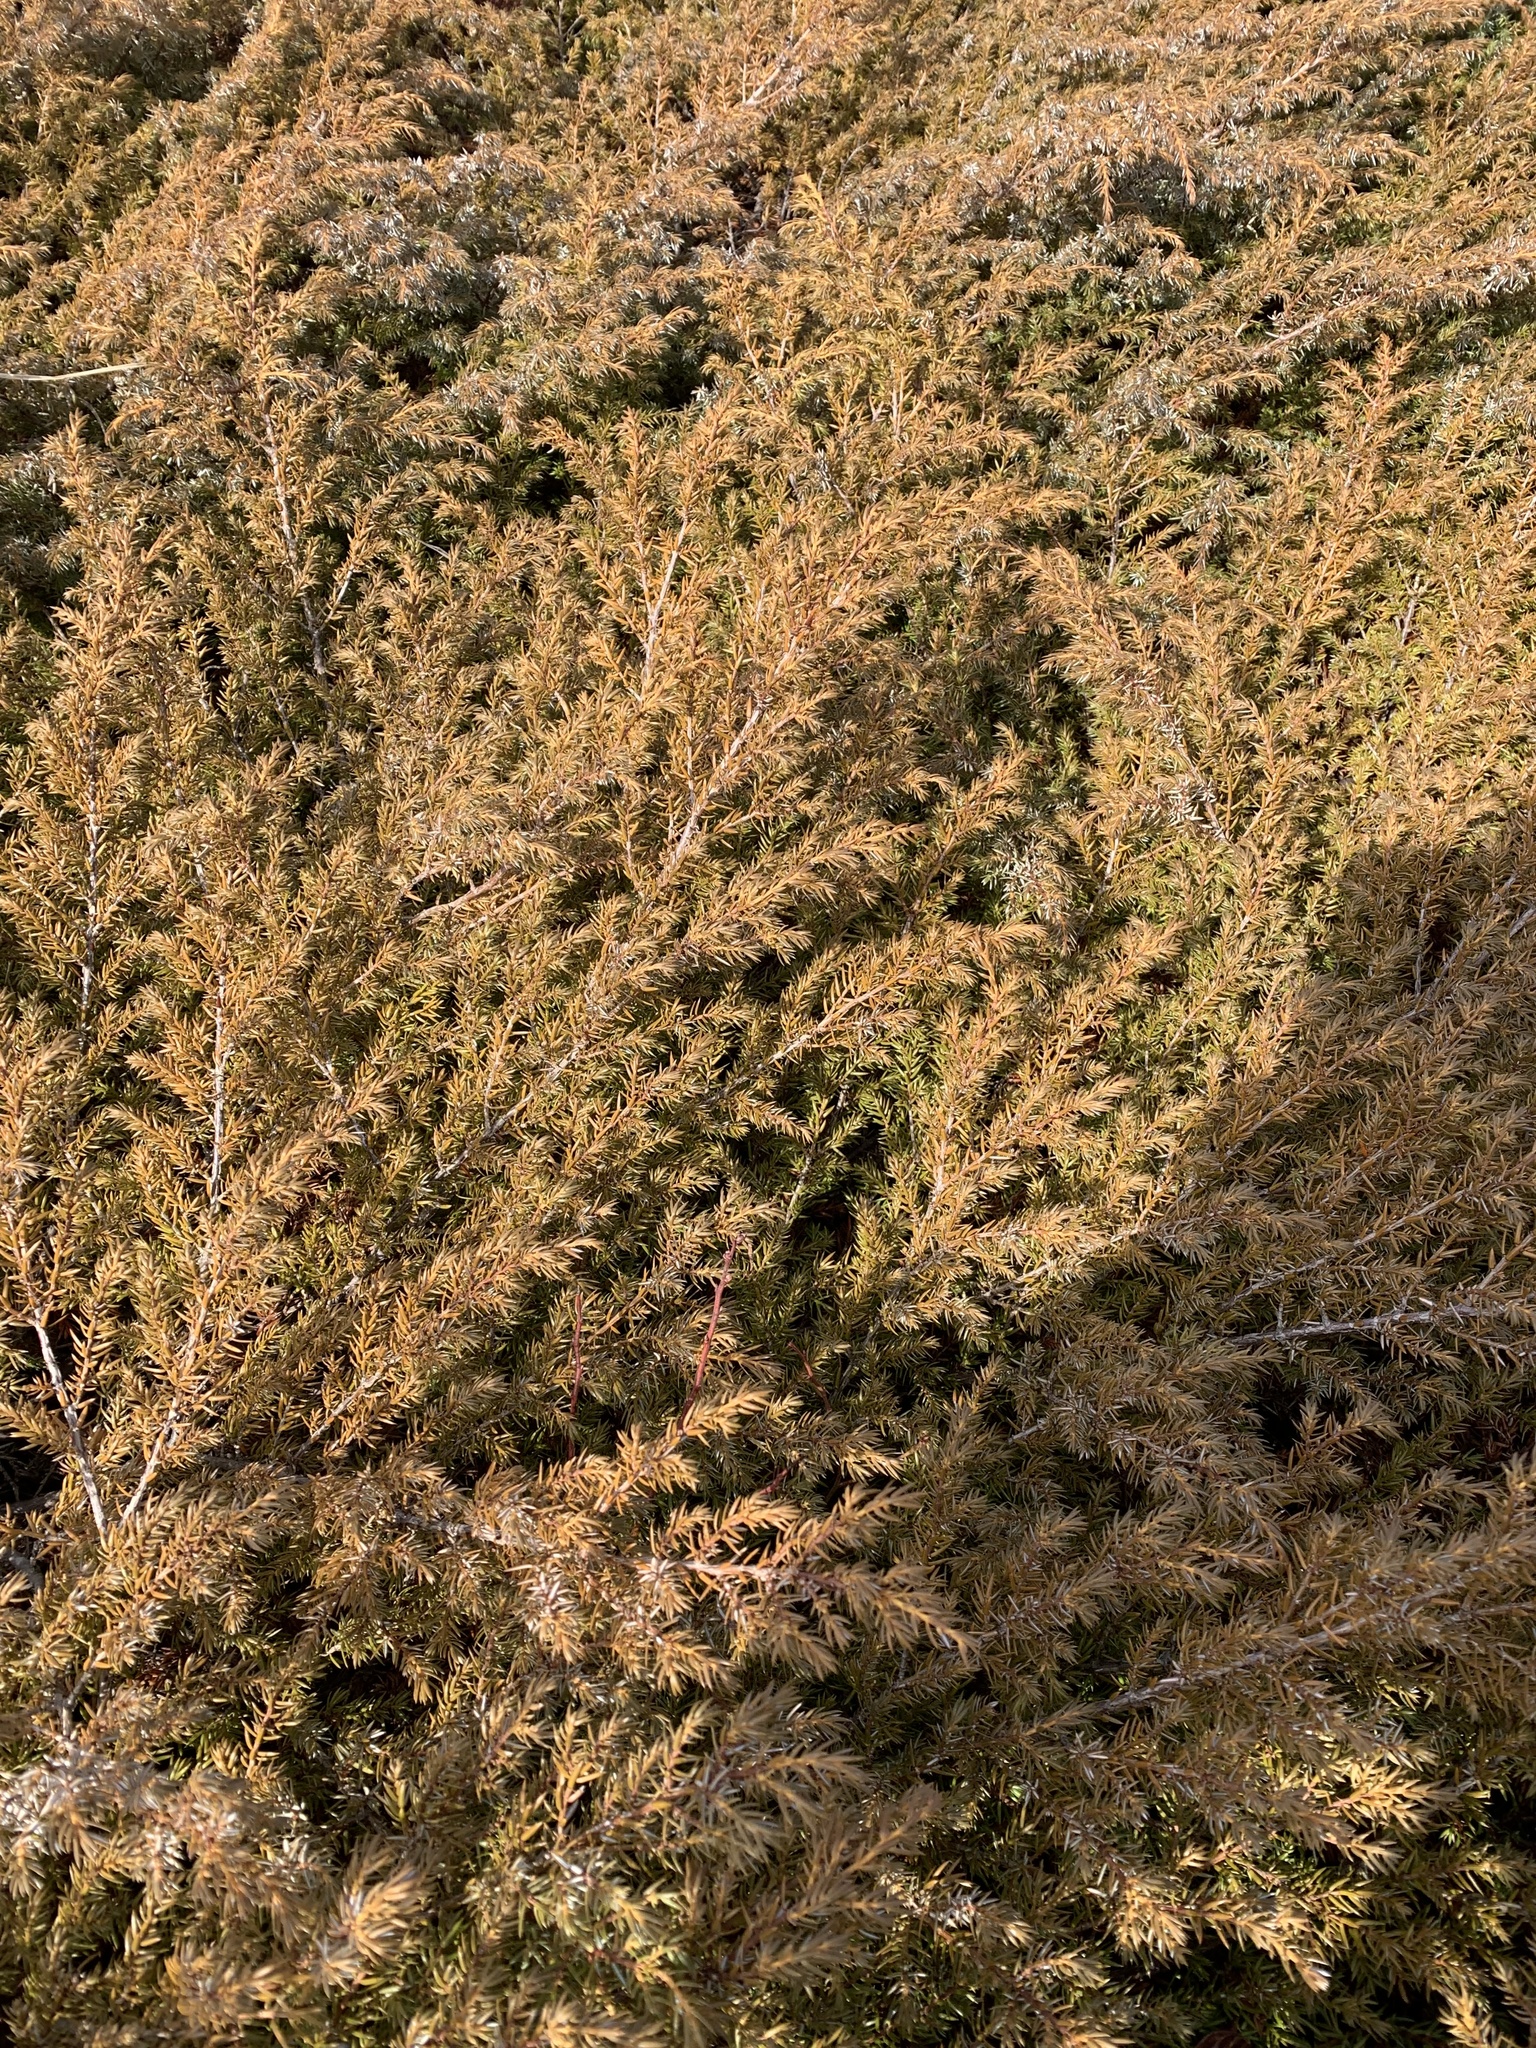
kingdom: Plantae
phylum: Tracheophyta
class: Pinopsida
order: Pinales
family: Cupressaceae
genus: Juniperus
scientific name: Juniperus communis
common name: Common juniper
